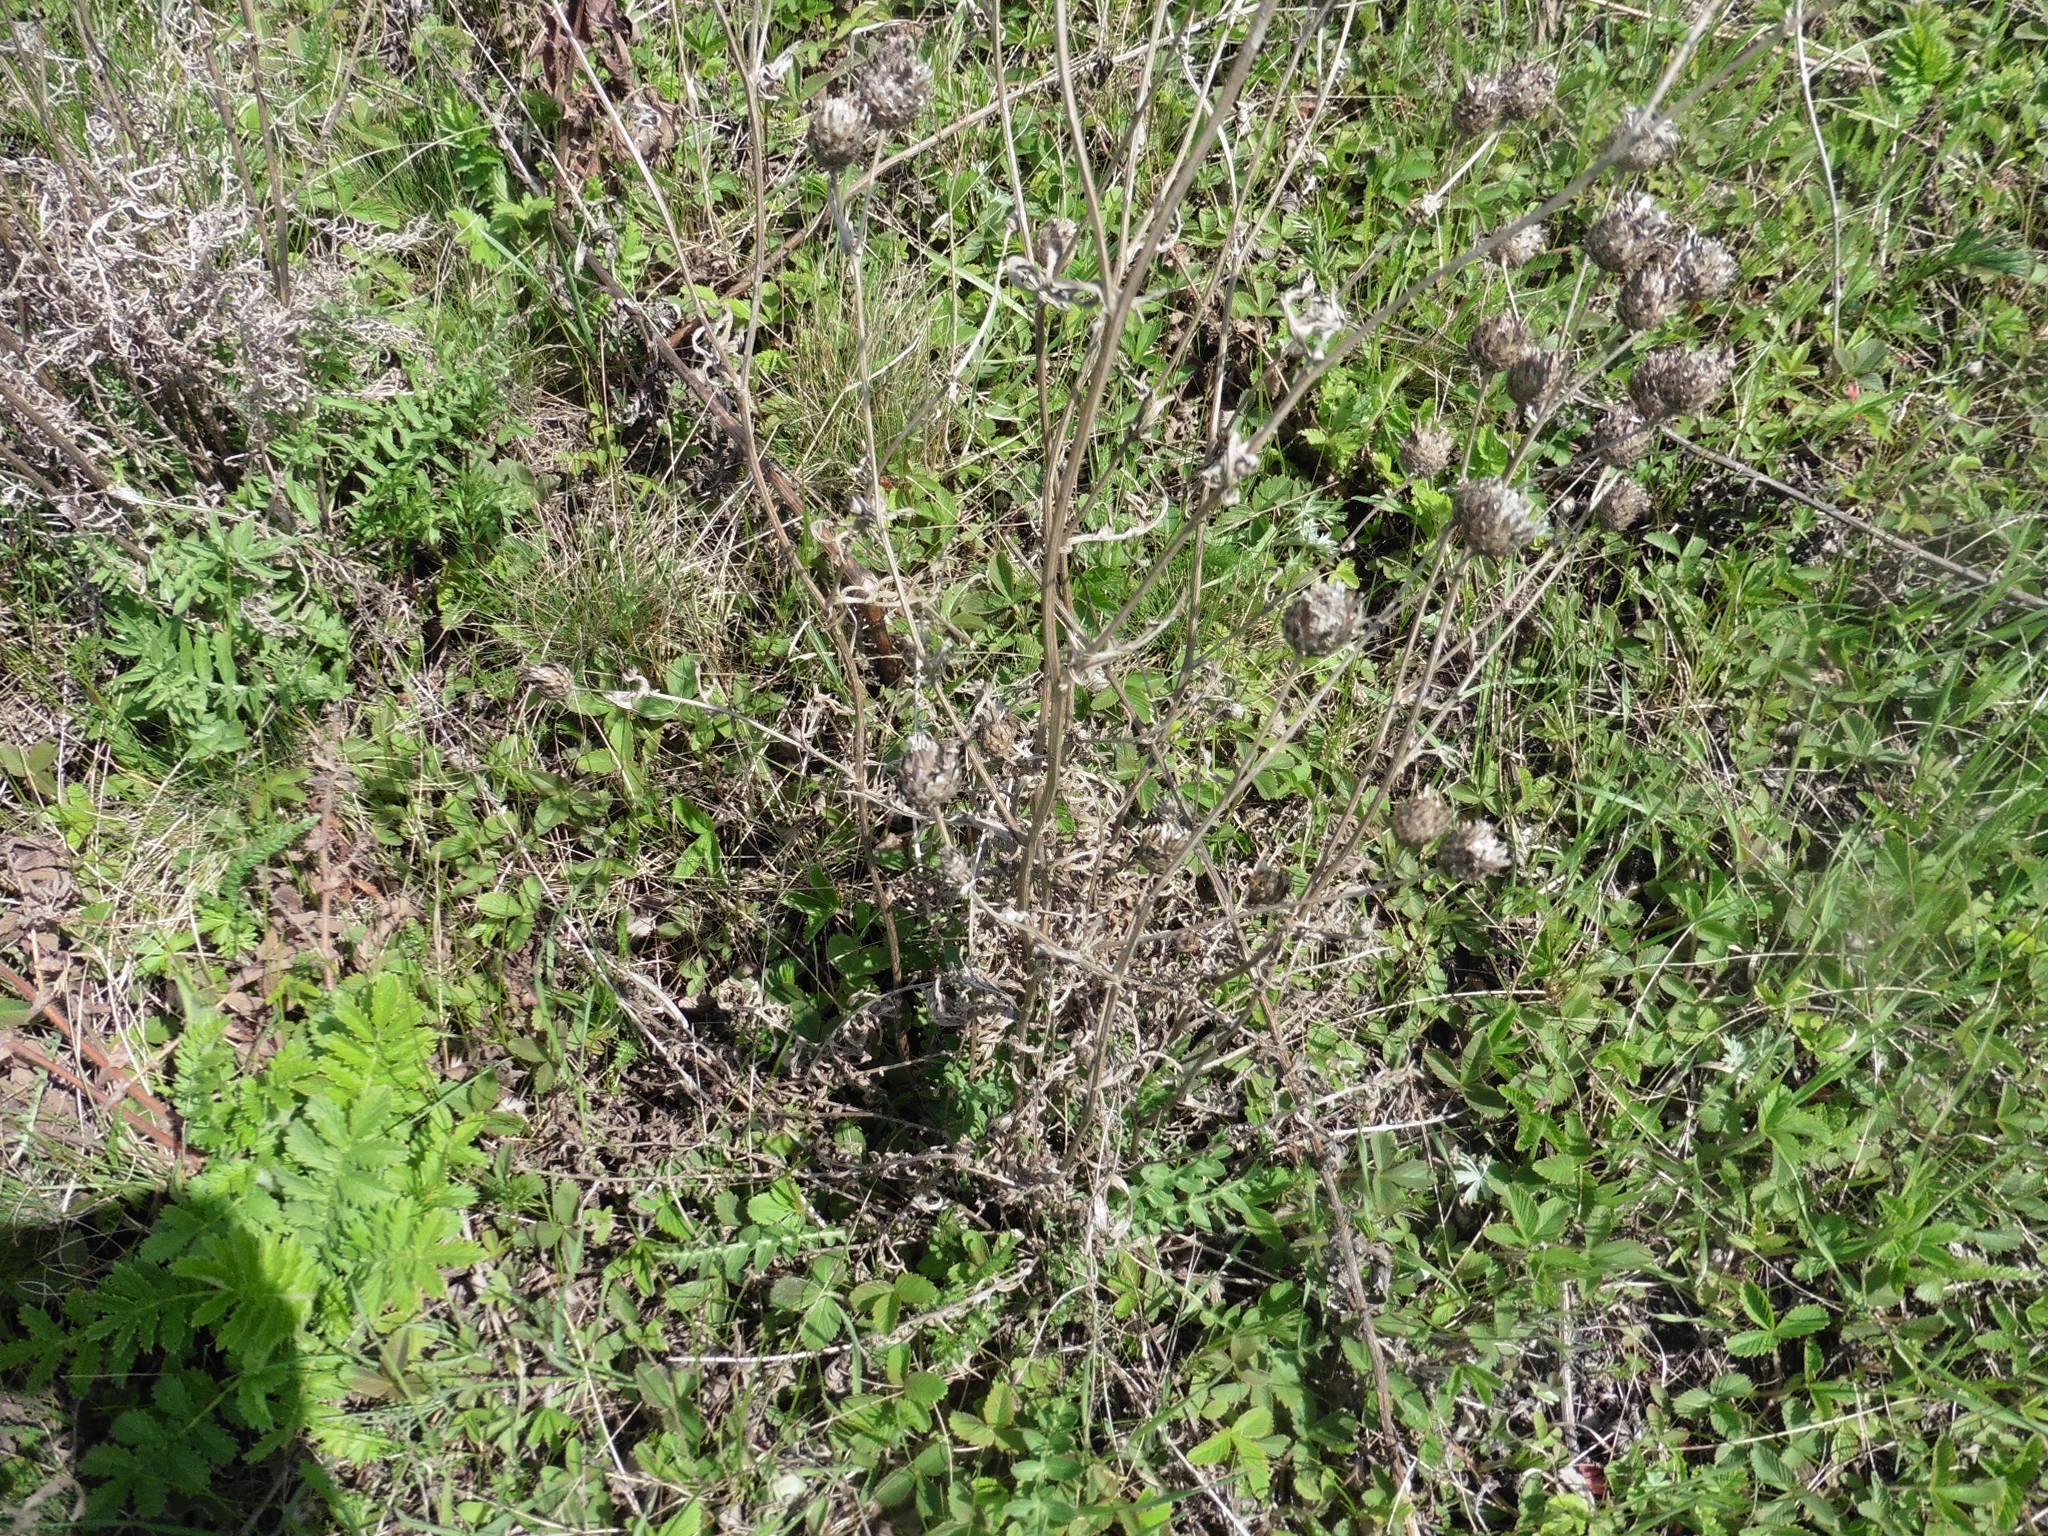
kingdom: Plantae
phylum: Tracheophyta
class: Magnoliopsida
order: Asterales
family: Asteraceae
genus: Centaurea
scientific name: Centaurea scabiosa
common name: Greater knapweed
